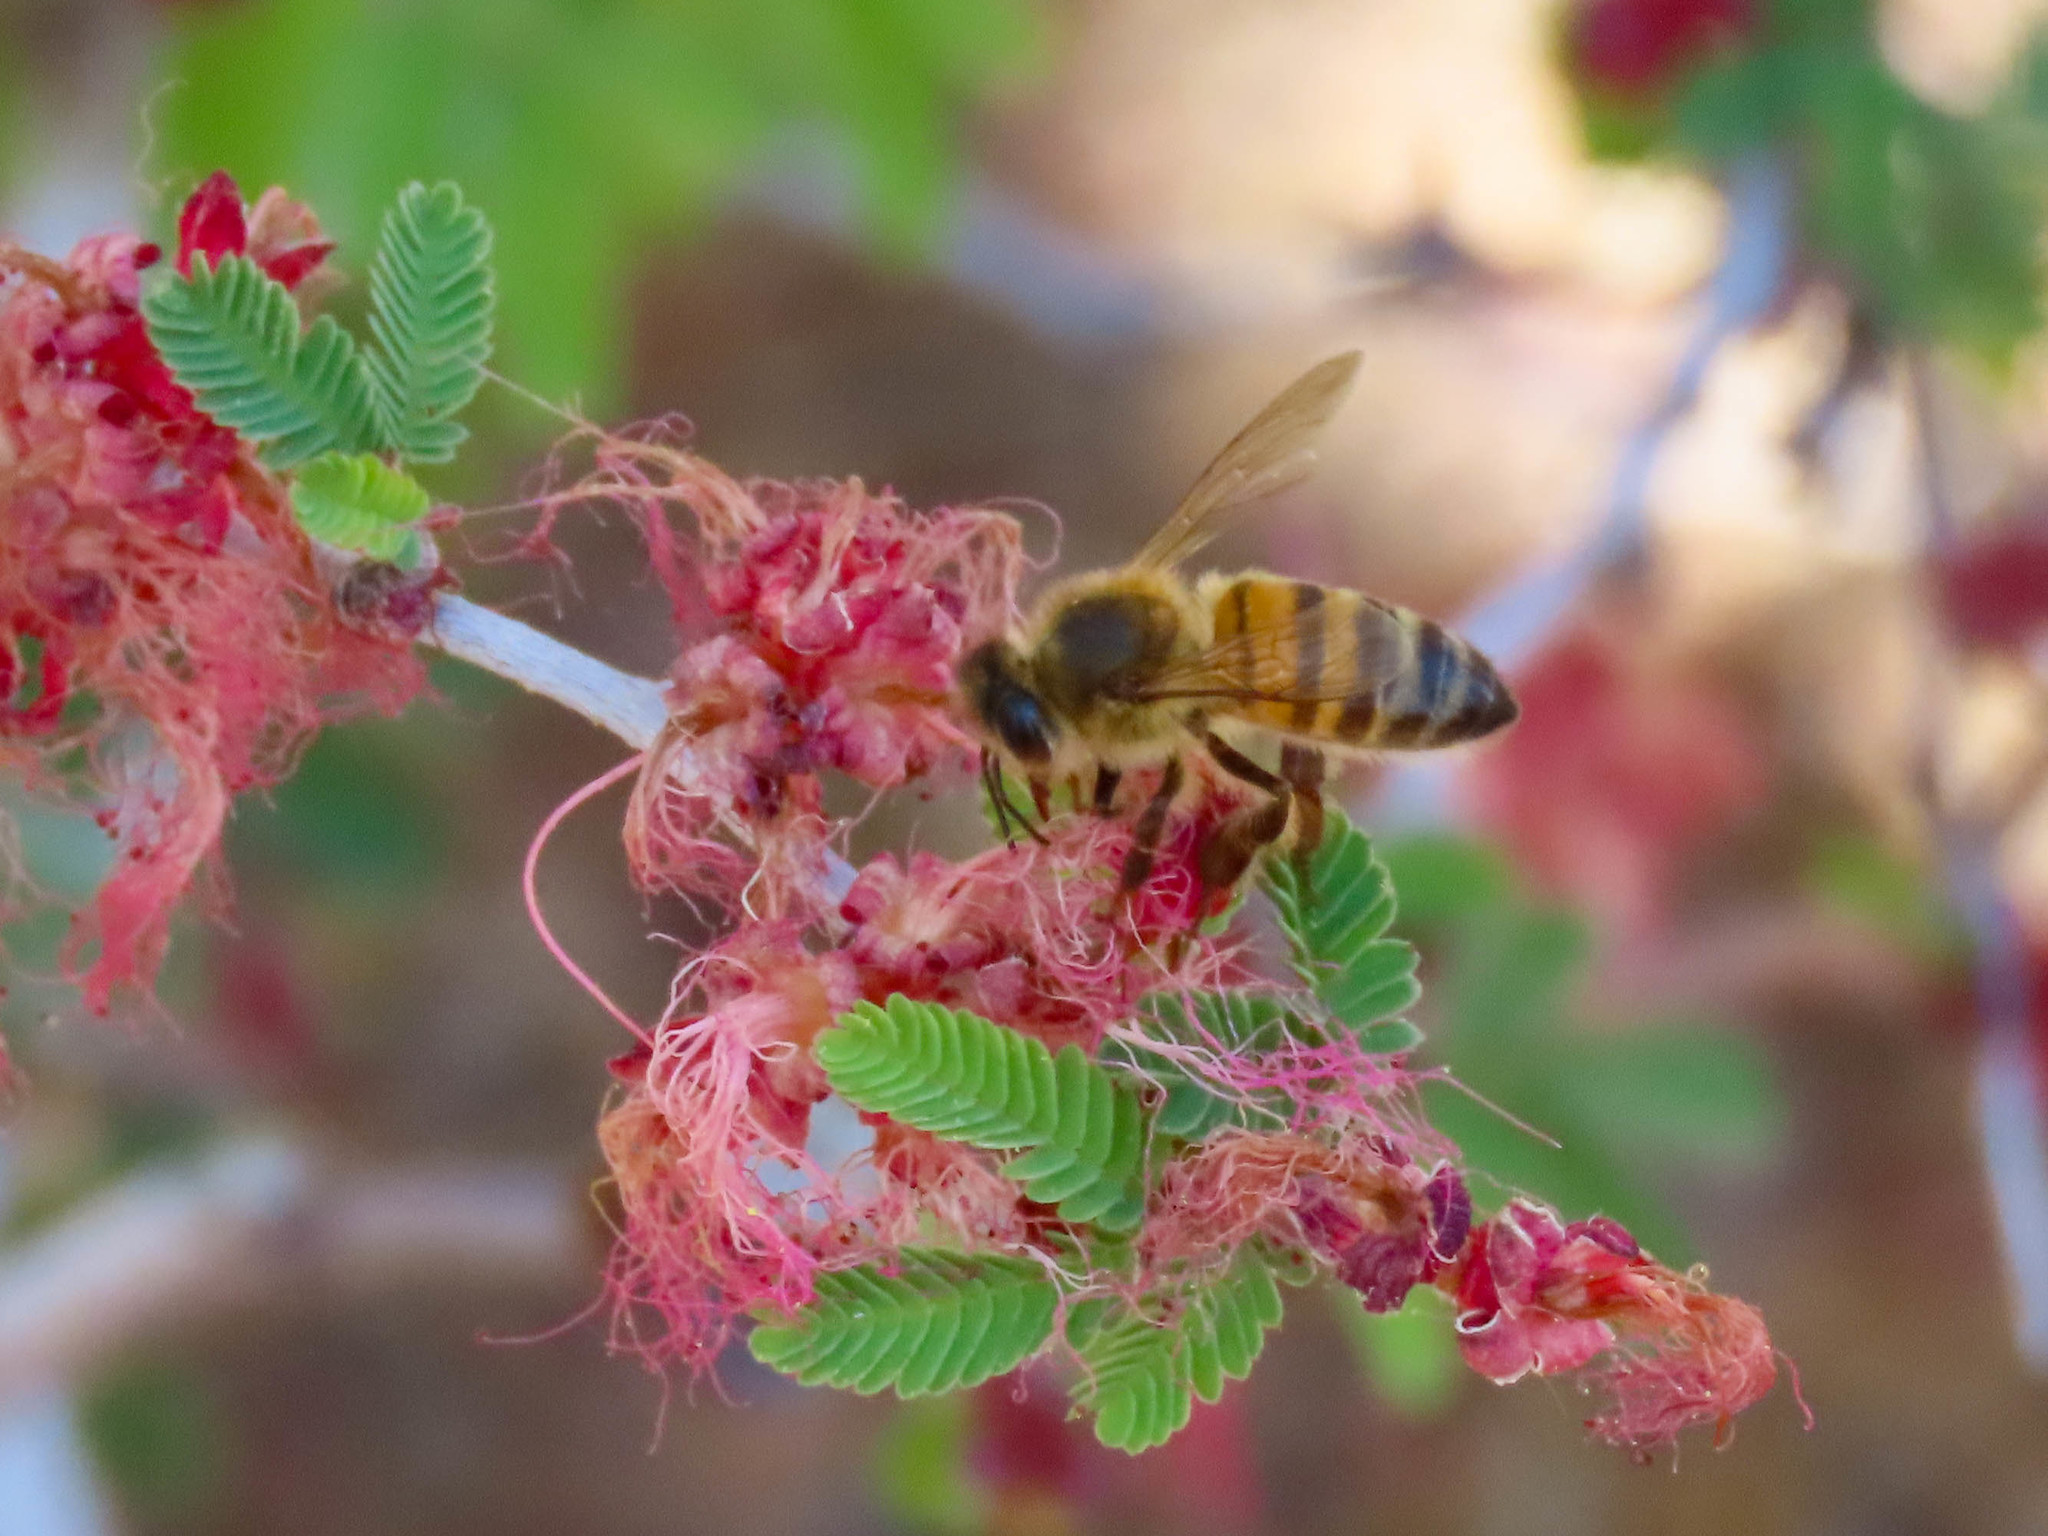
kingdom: Animalia
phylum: Arthropoda
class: Insecta
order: Hymenoptera
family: Apidae
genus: Apis
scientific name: Apis mellifera
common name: Honey bee
